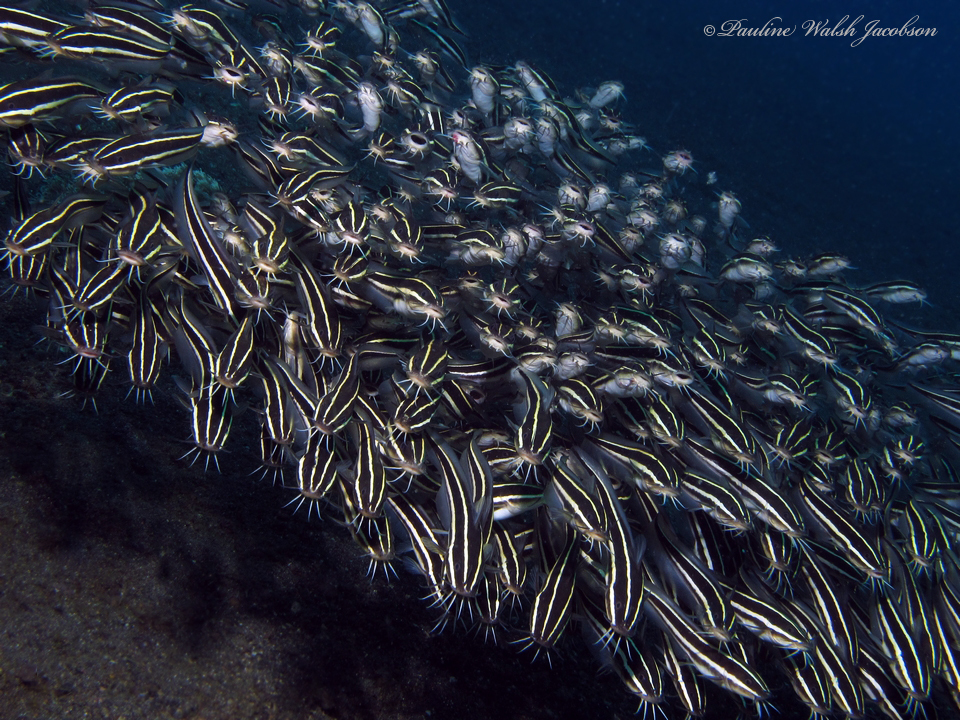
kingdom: Animalia
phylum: Chordata
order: Siluriformes
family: Plotosidae
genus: Plotosus
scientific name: Plotosus lineatus
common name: Striped eel catfish
